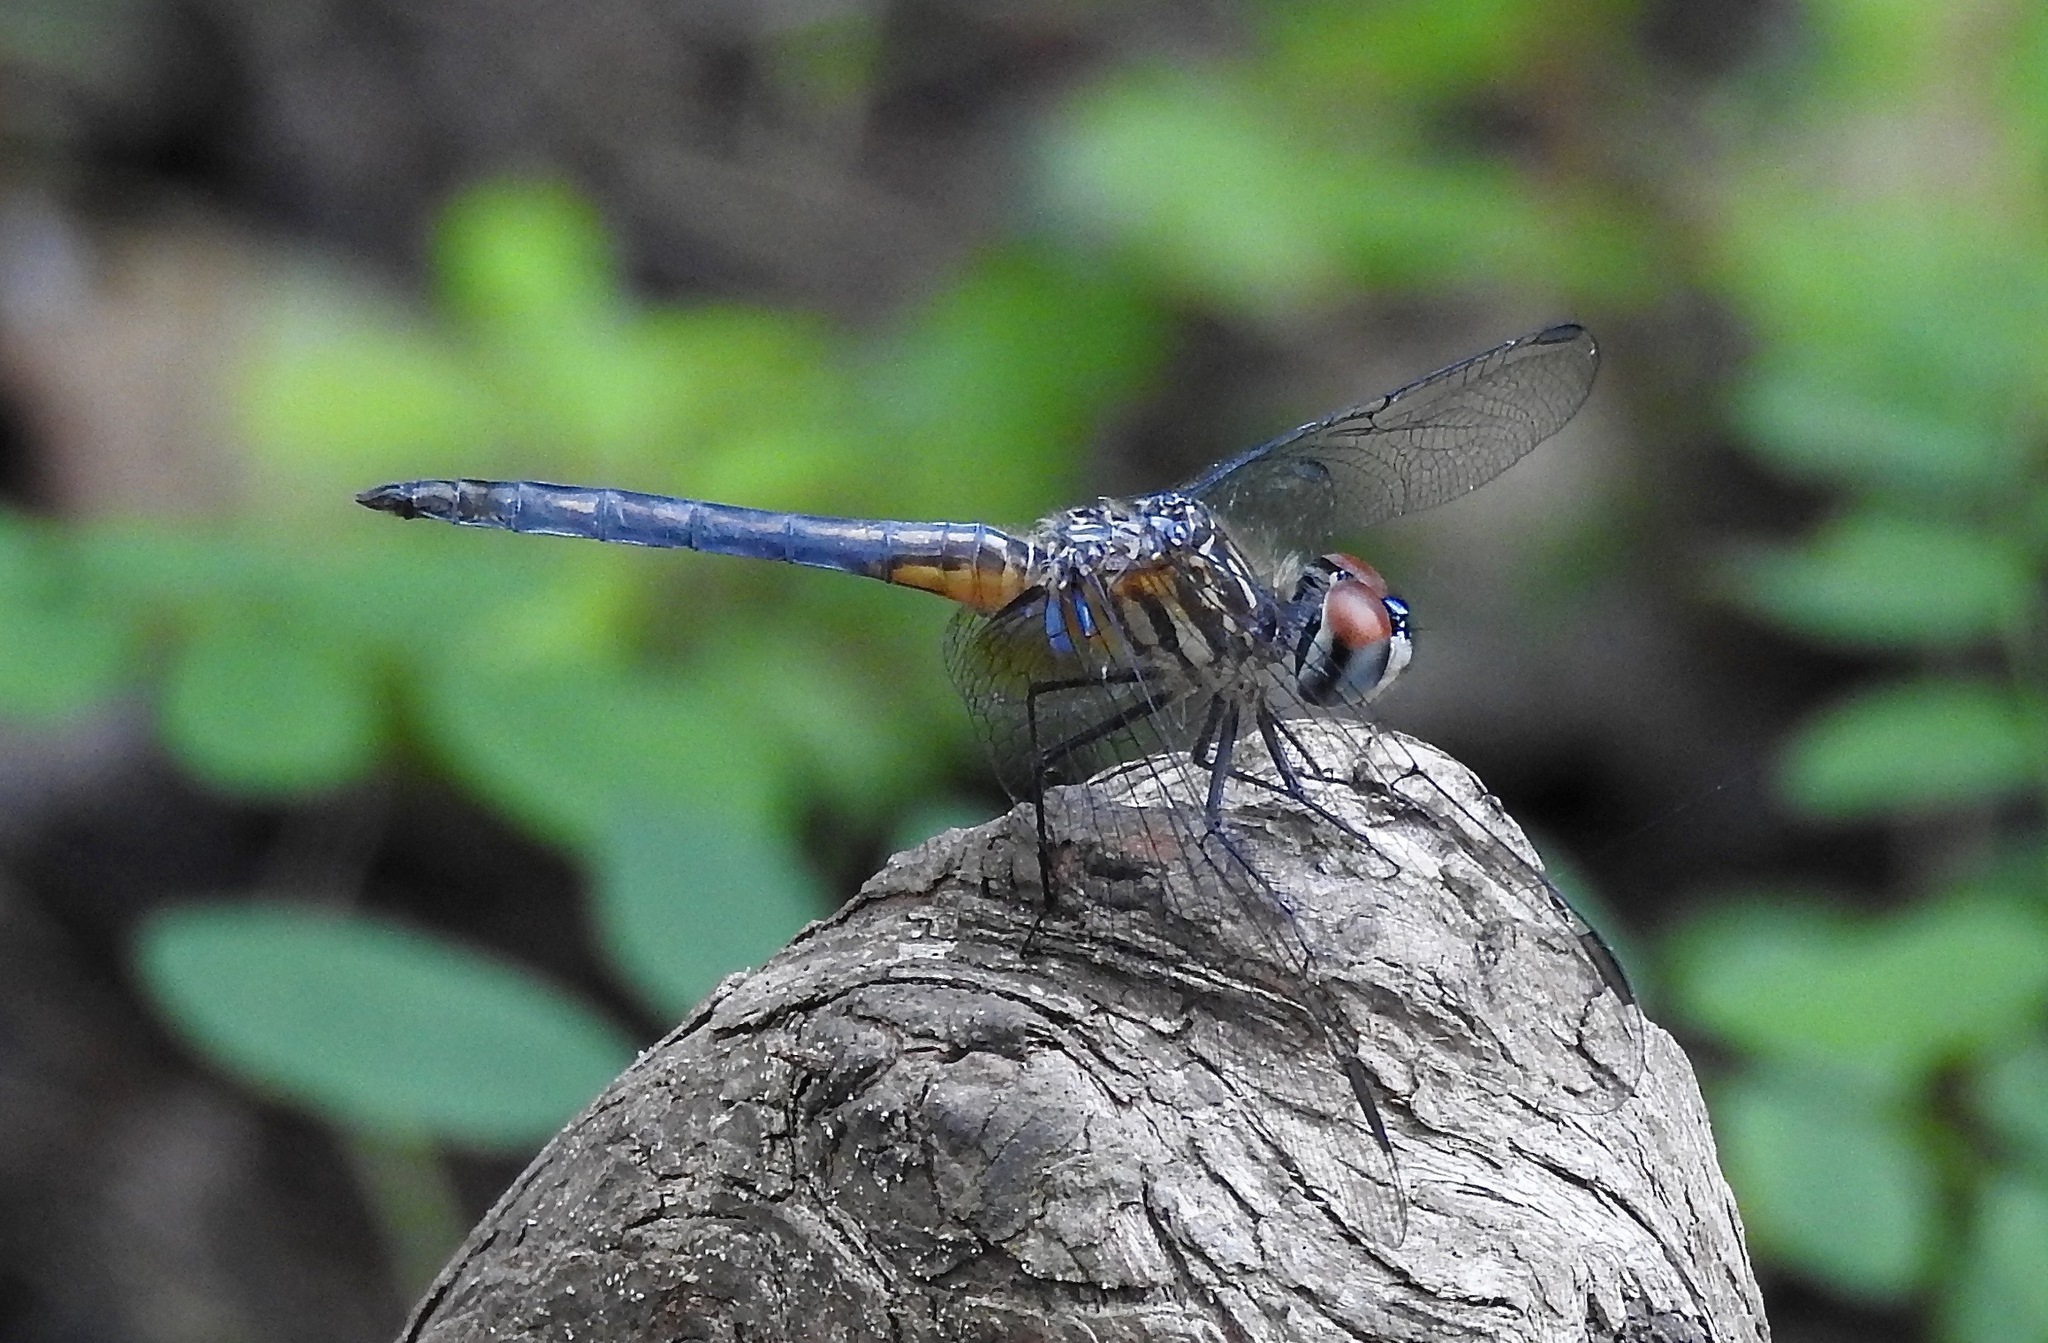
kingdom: Animalia
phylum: Arthropoda
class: Insecta
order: Odonata
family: Libellulidae
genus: Pachydiplax
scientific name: Pachydiplax longipennis
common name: Blue dasher
